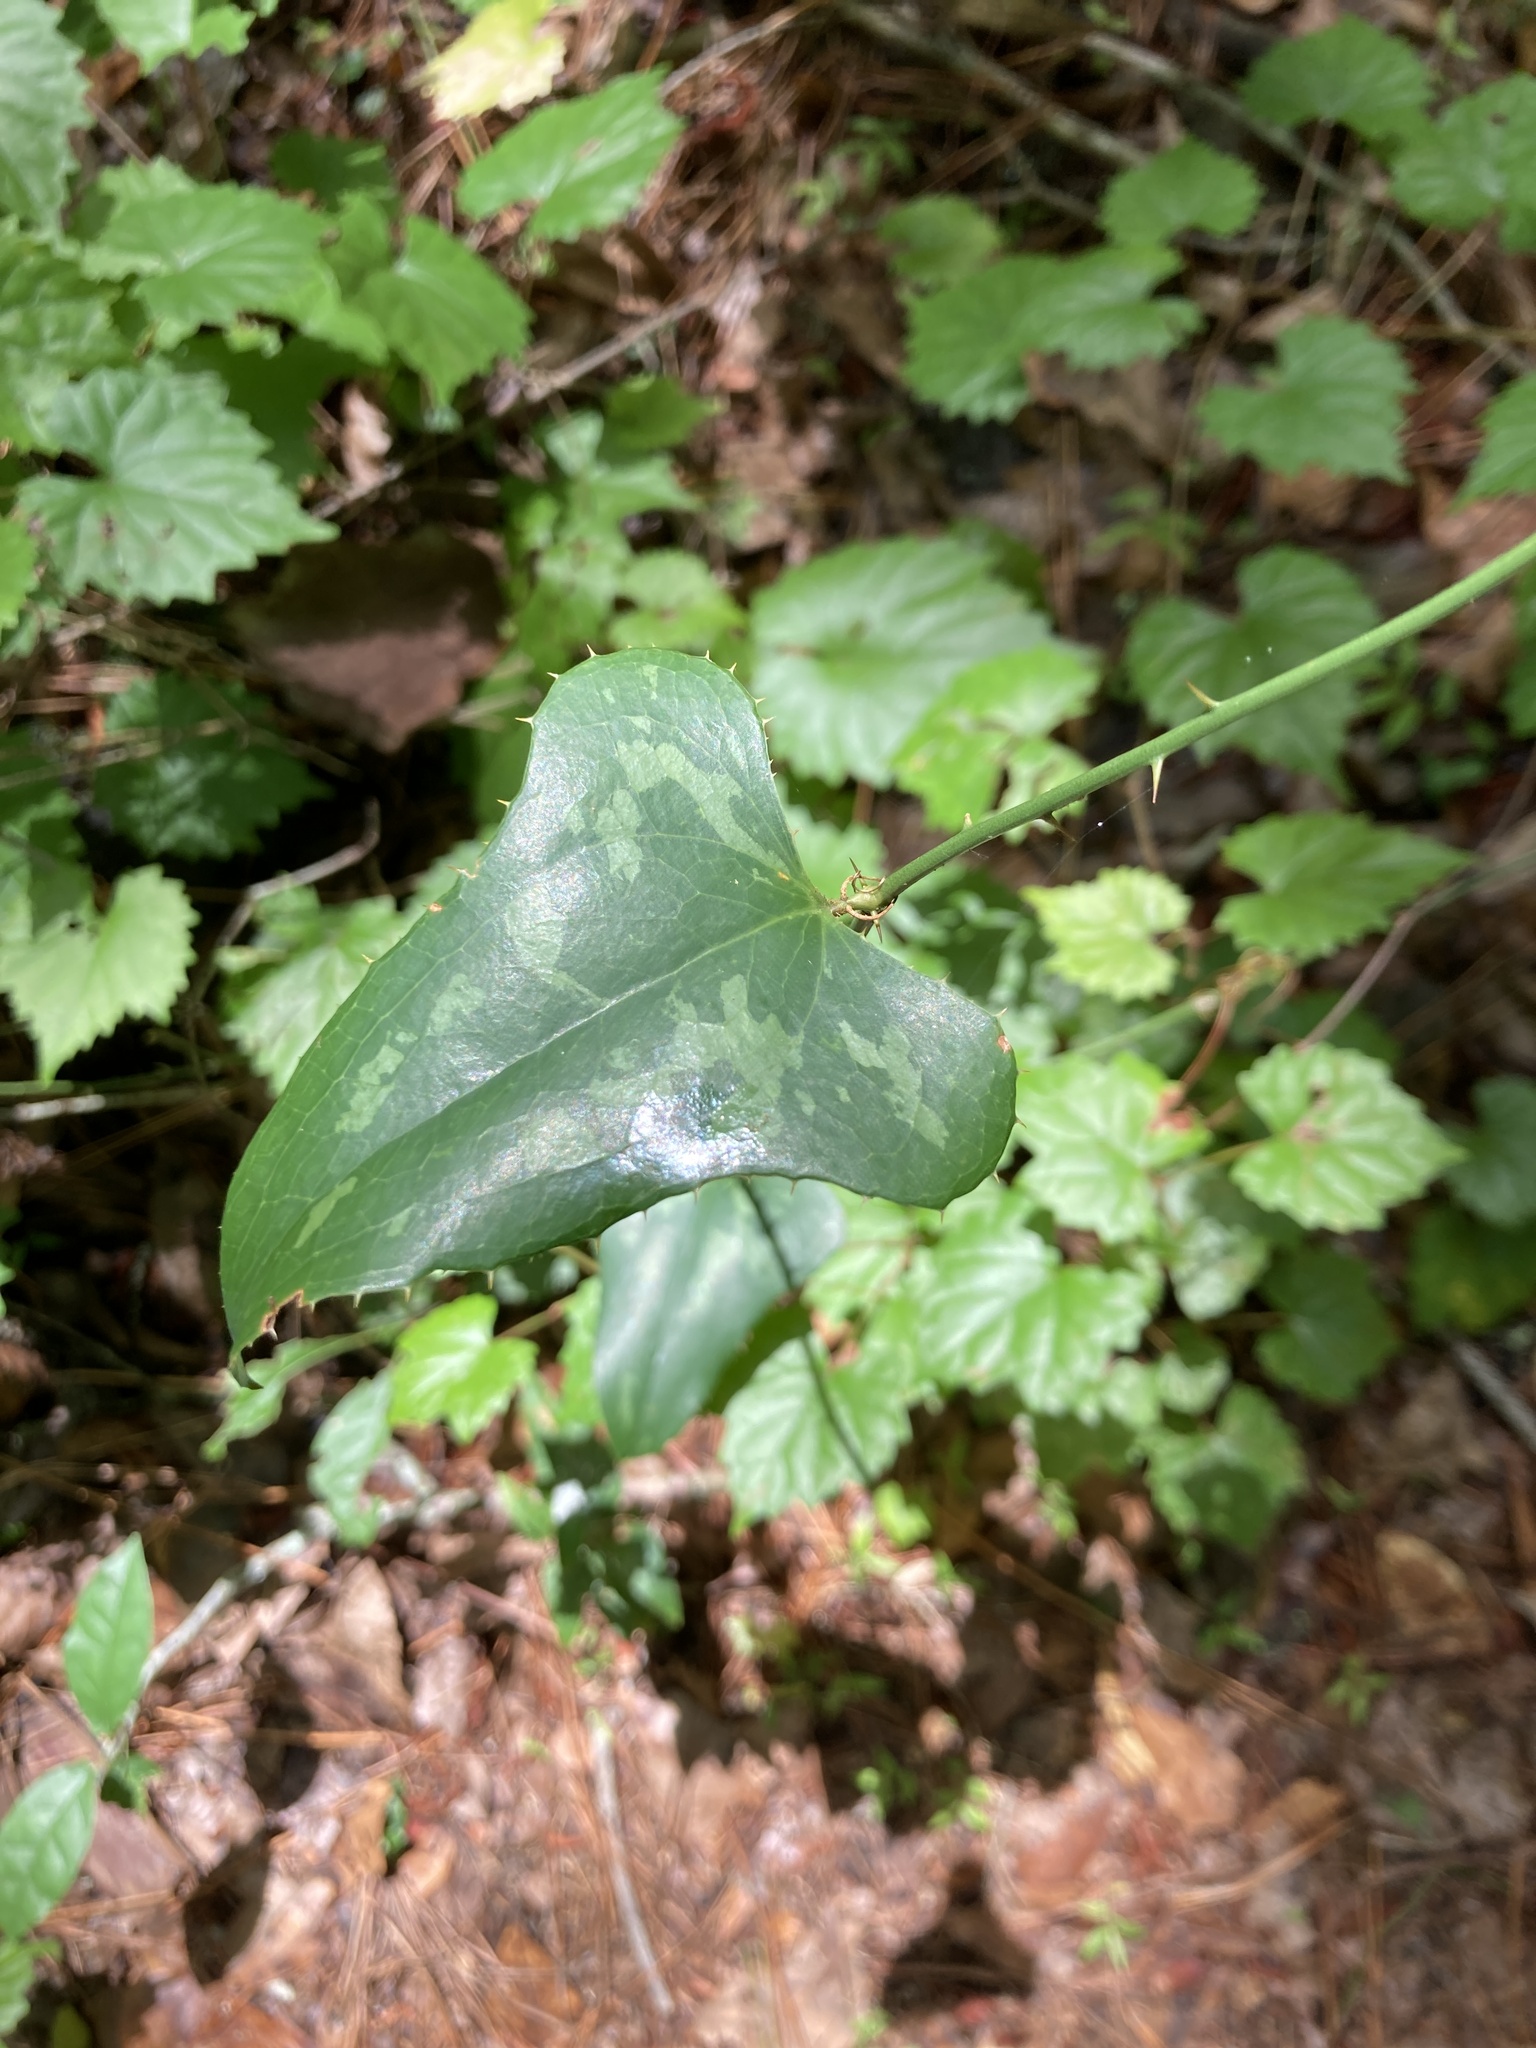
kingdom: Plantae
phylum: Tracheophyta
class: Liliopsida
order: Liliales
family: Smilacaceae
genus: Smilax
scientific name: Smilax bona-nox
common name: Catbrier
